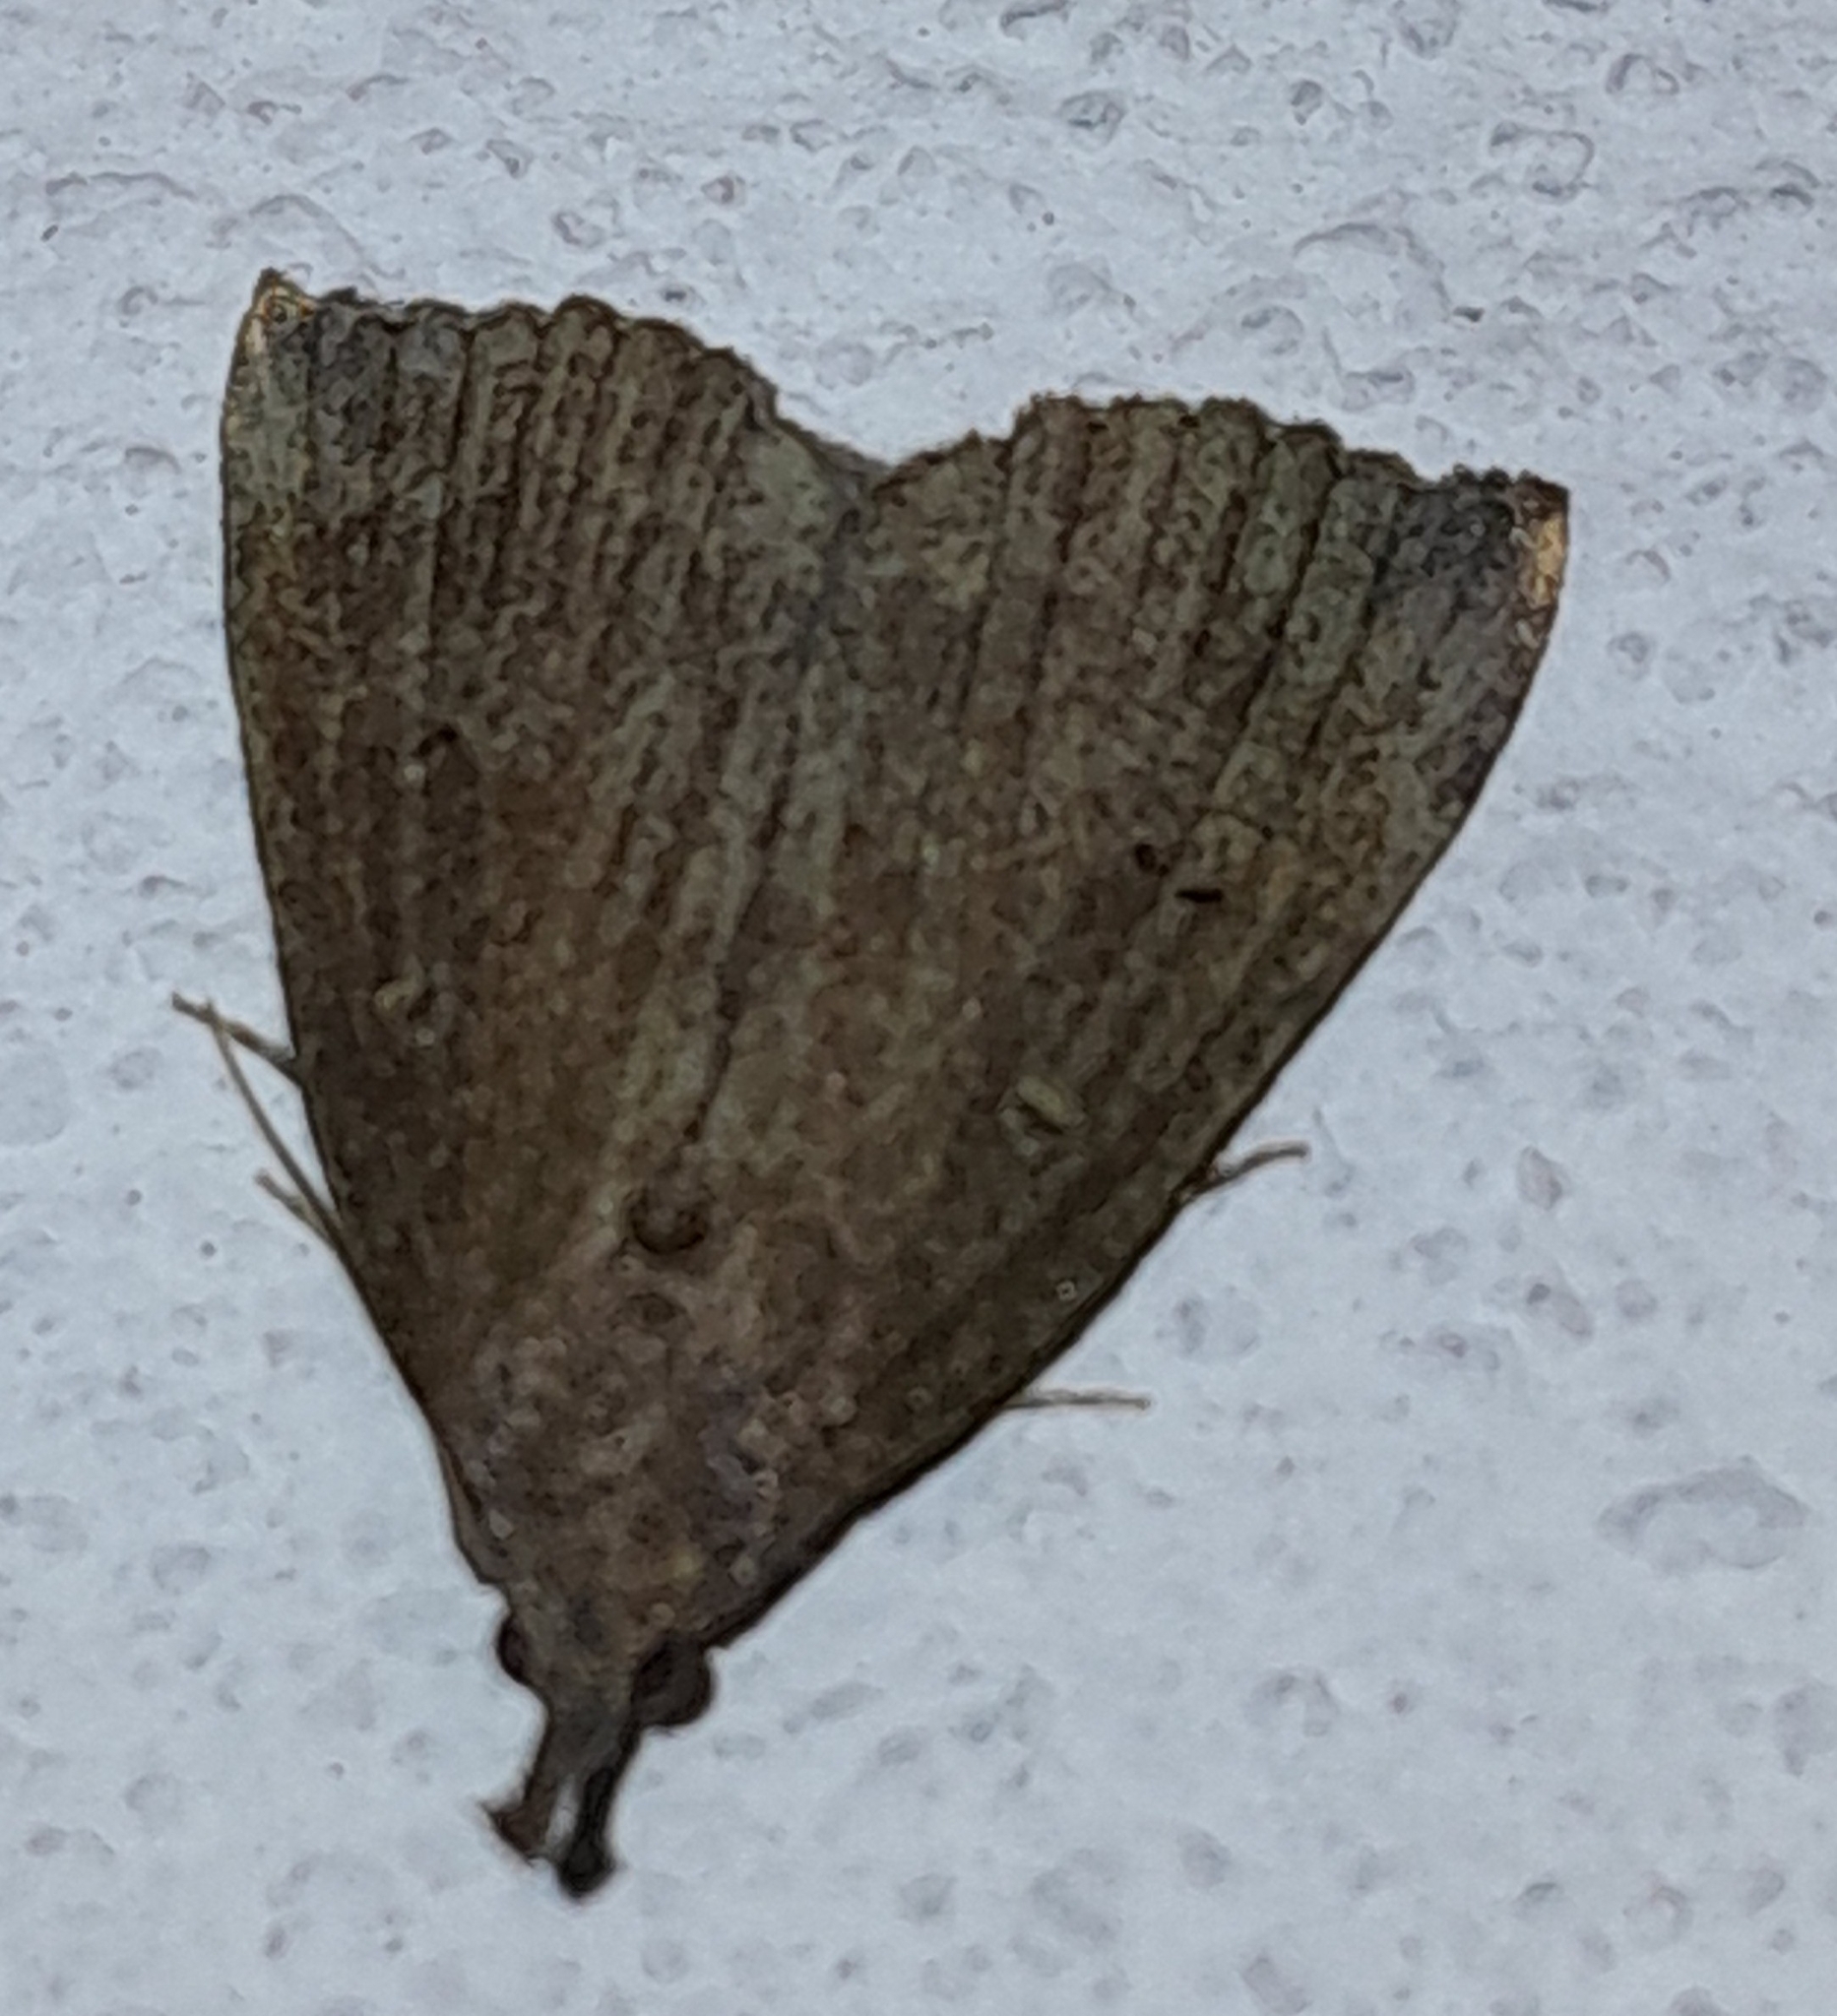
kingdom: Animalia
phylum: Arthropoda
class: Insecta
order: Lepidoptera
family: Erebidae
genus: Hypena
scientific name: Hypena rostralis
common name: Buttoned snout
